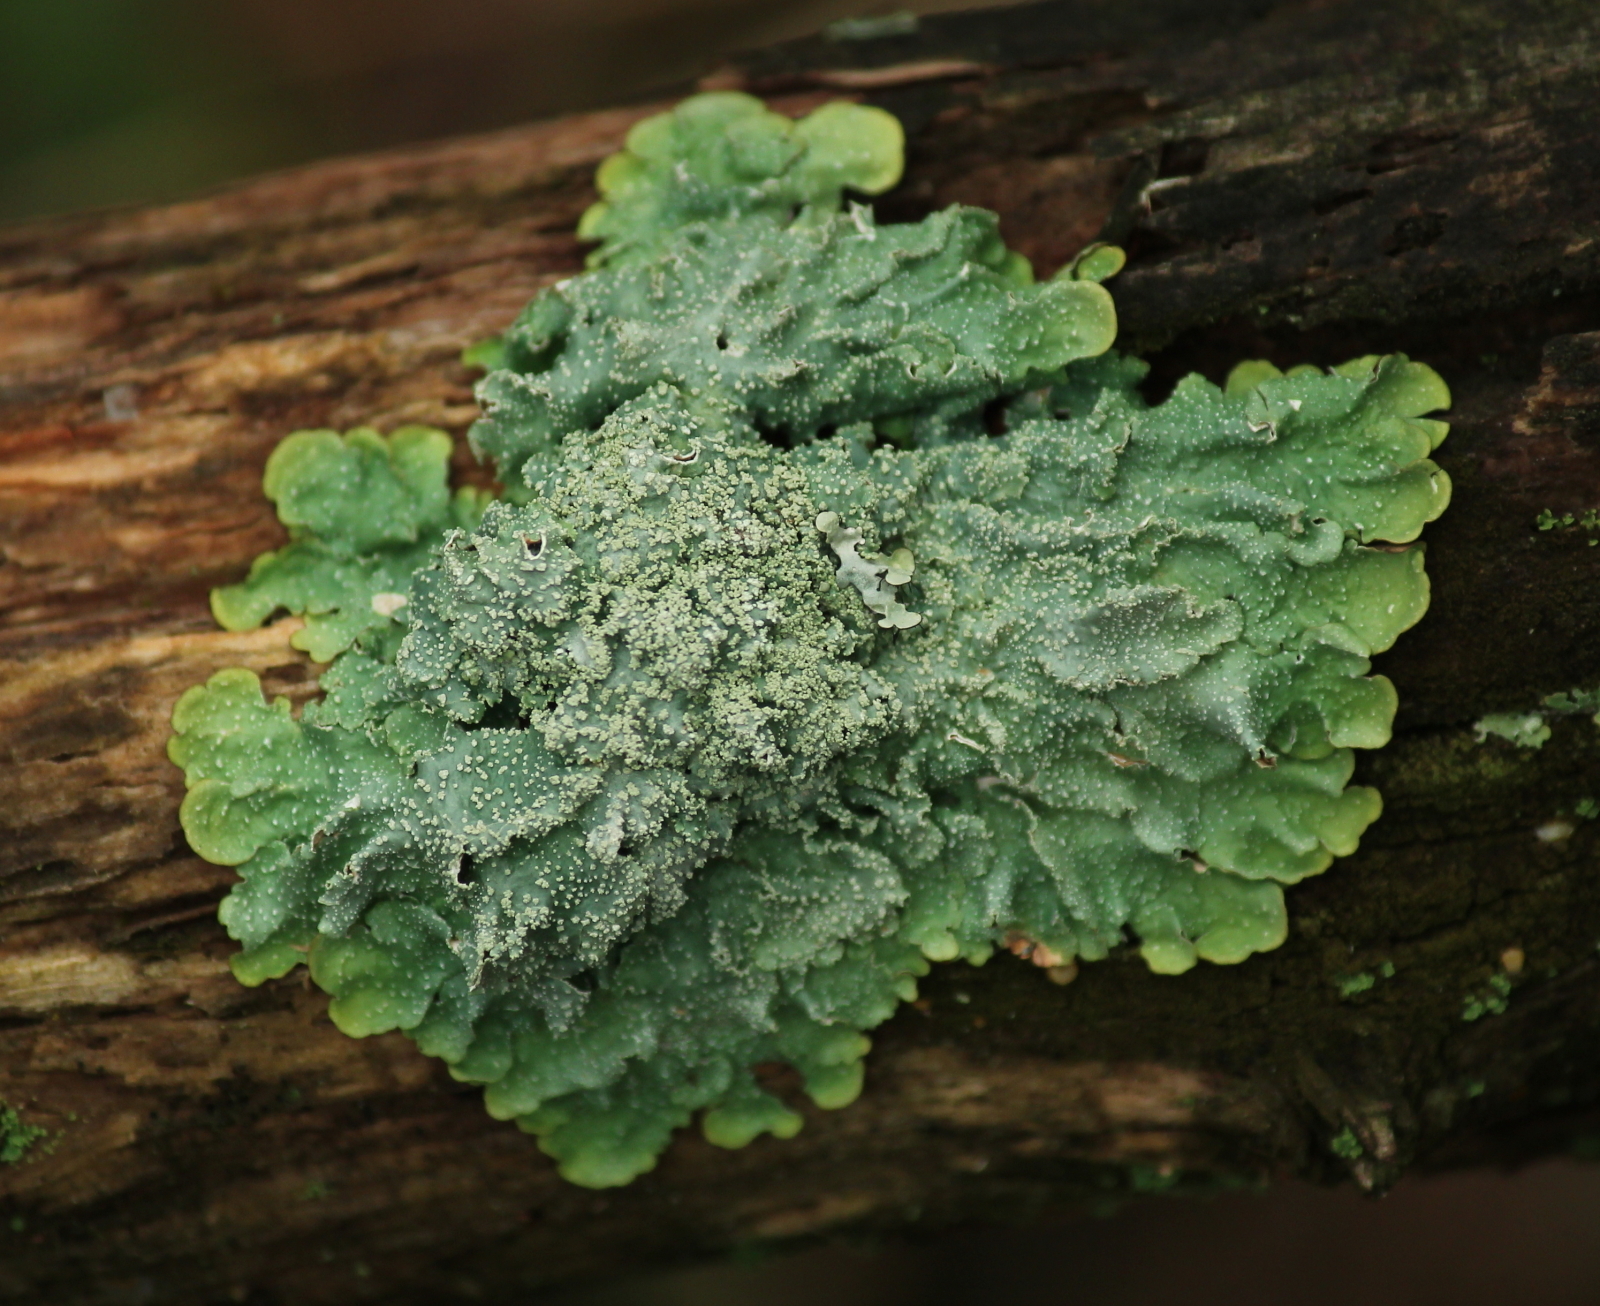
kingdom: Fungi
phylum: Ascomycota
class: Lecanoromycetes
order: Lecanorales
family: Parmeliaceae
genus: Punctelia
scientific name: Punctelia missouriensis
